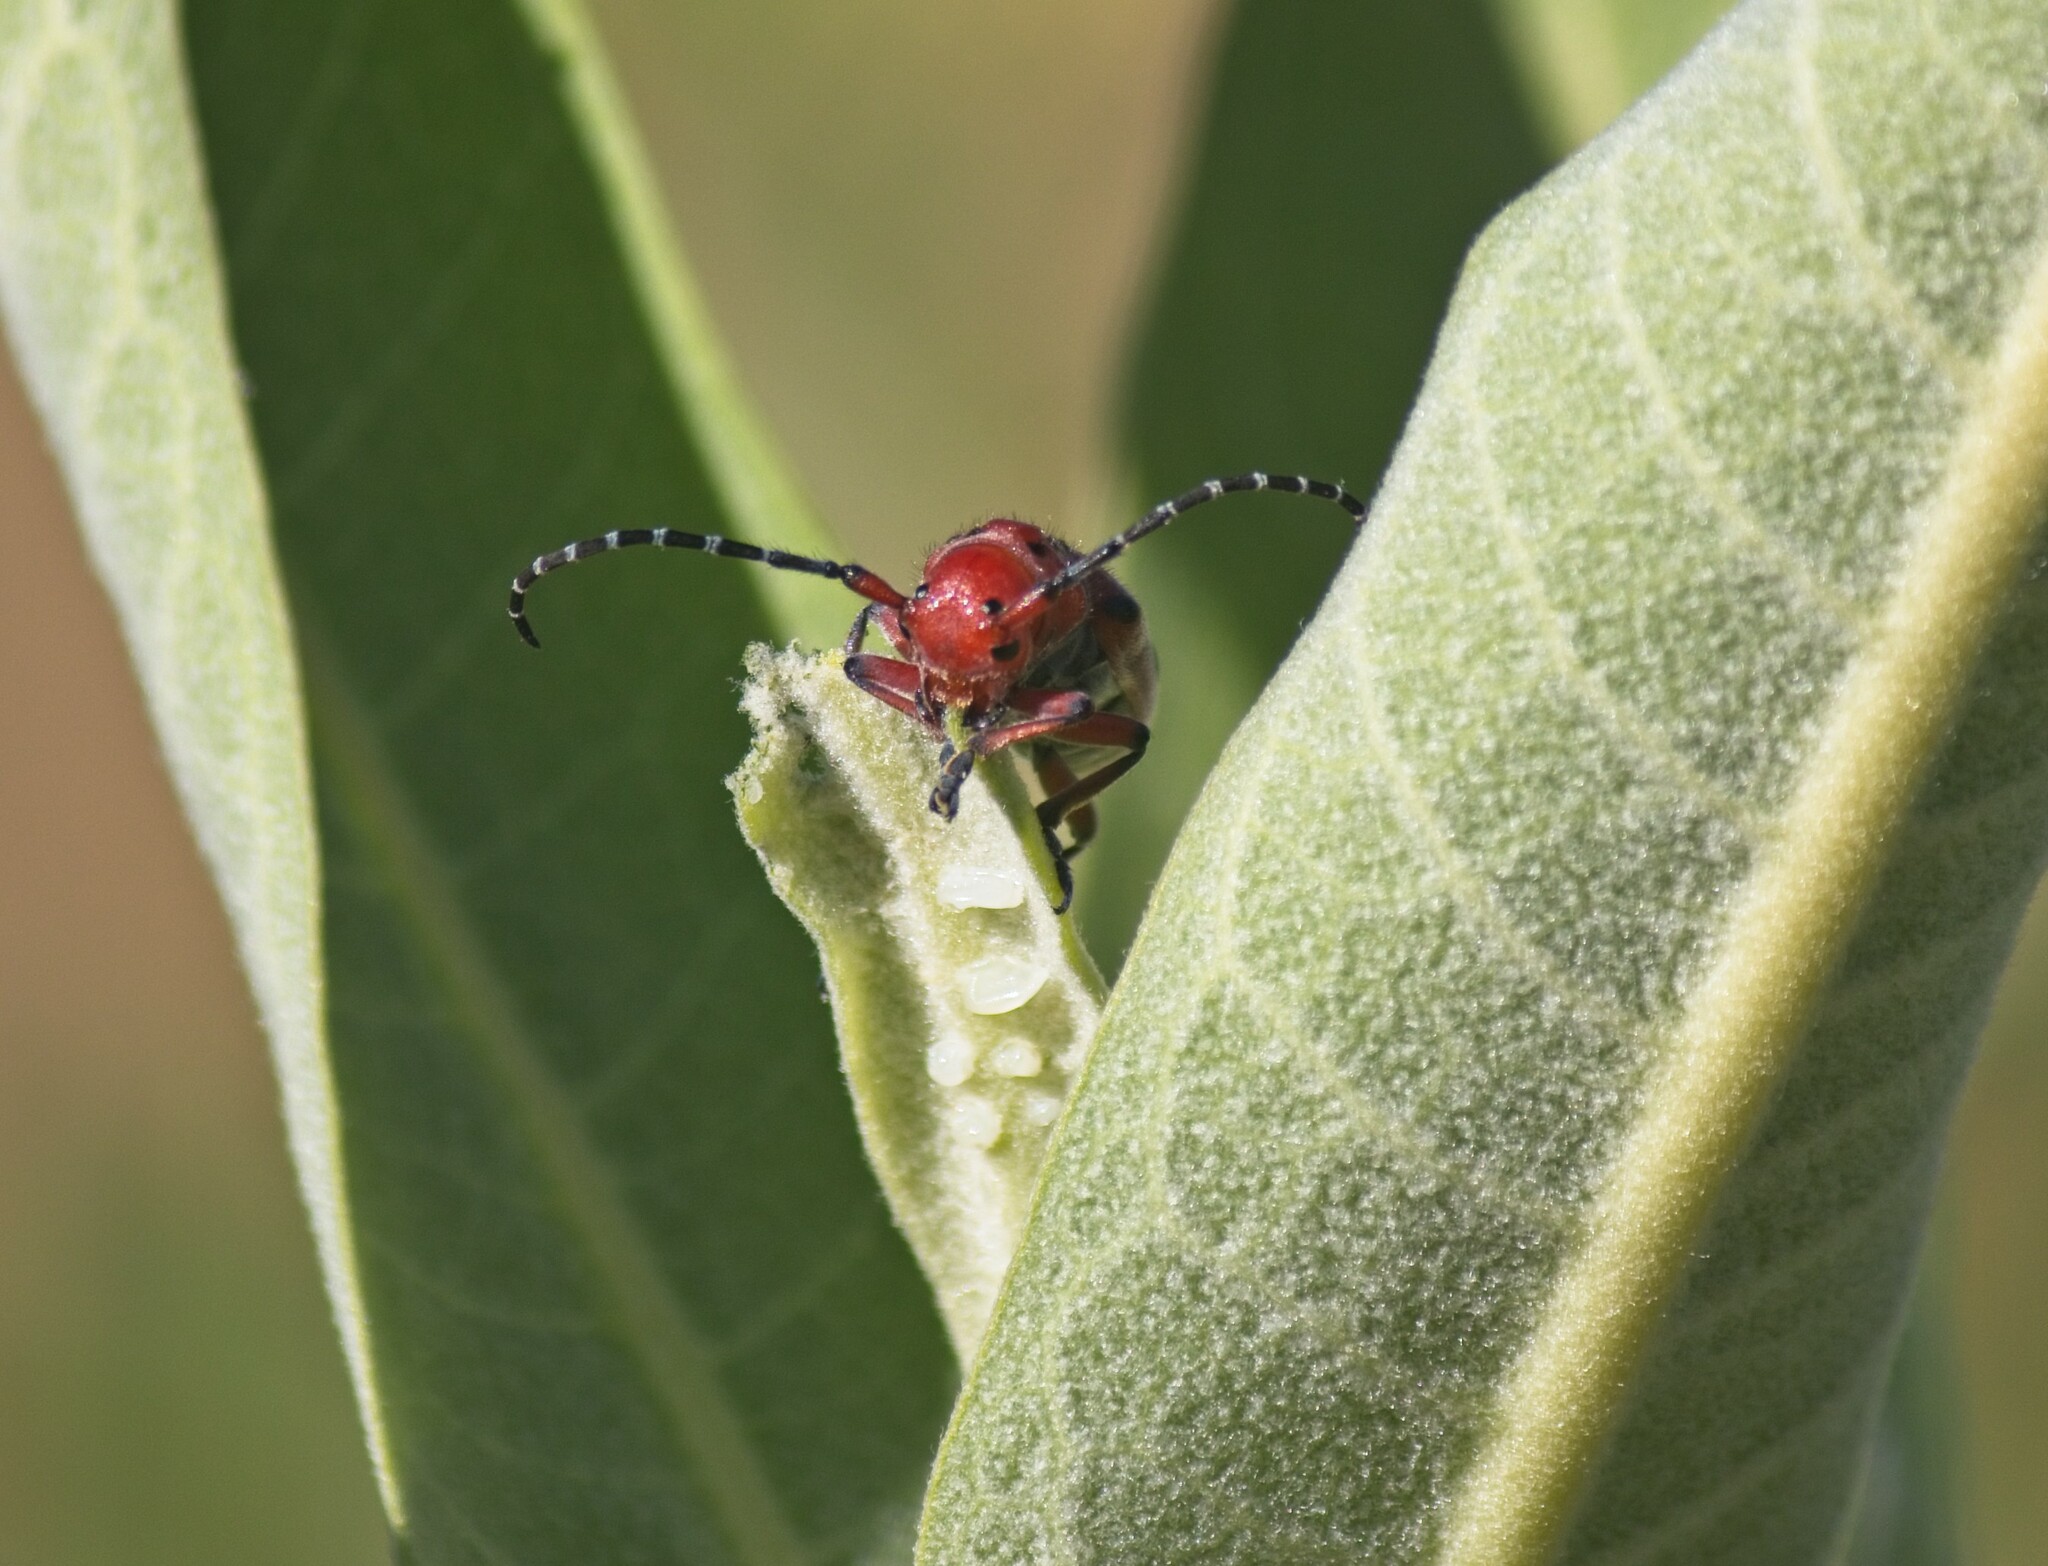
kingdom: Animalia
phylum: Arthropoda
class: Insecta
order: Coleoptera
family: Cerambycidae
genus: Tetraopes
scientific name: Tetraopes femoratus
